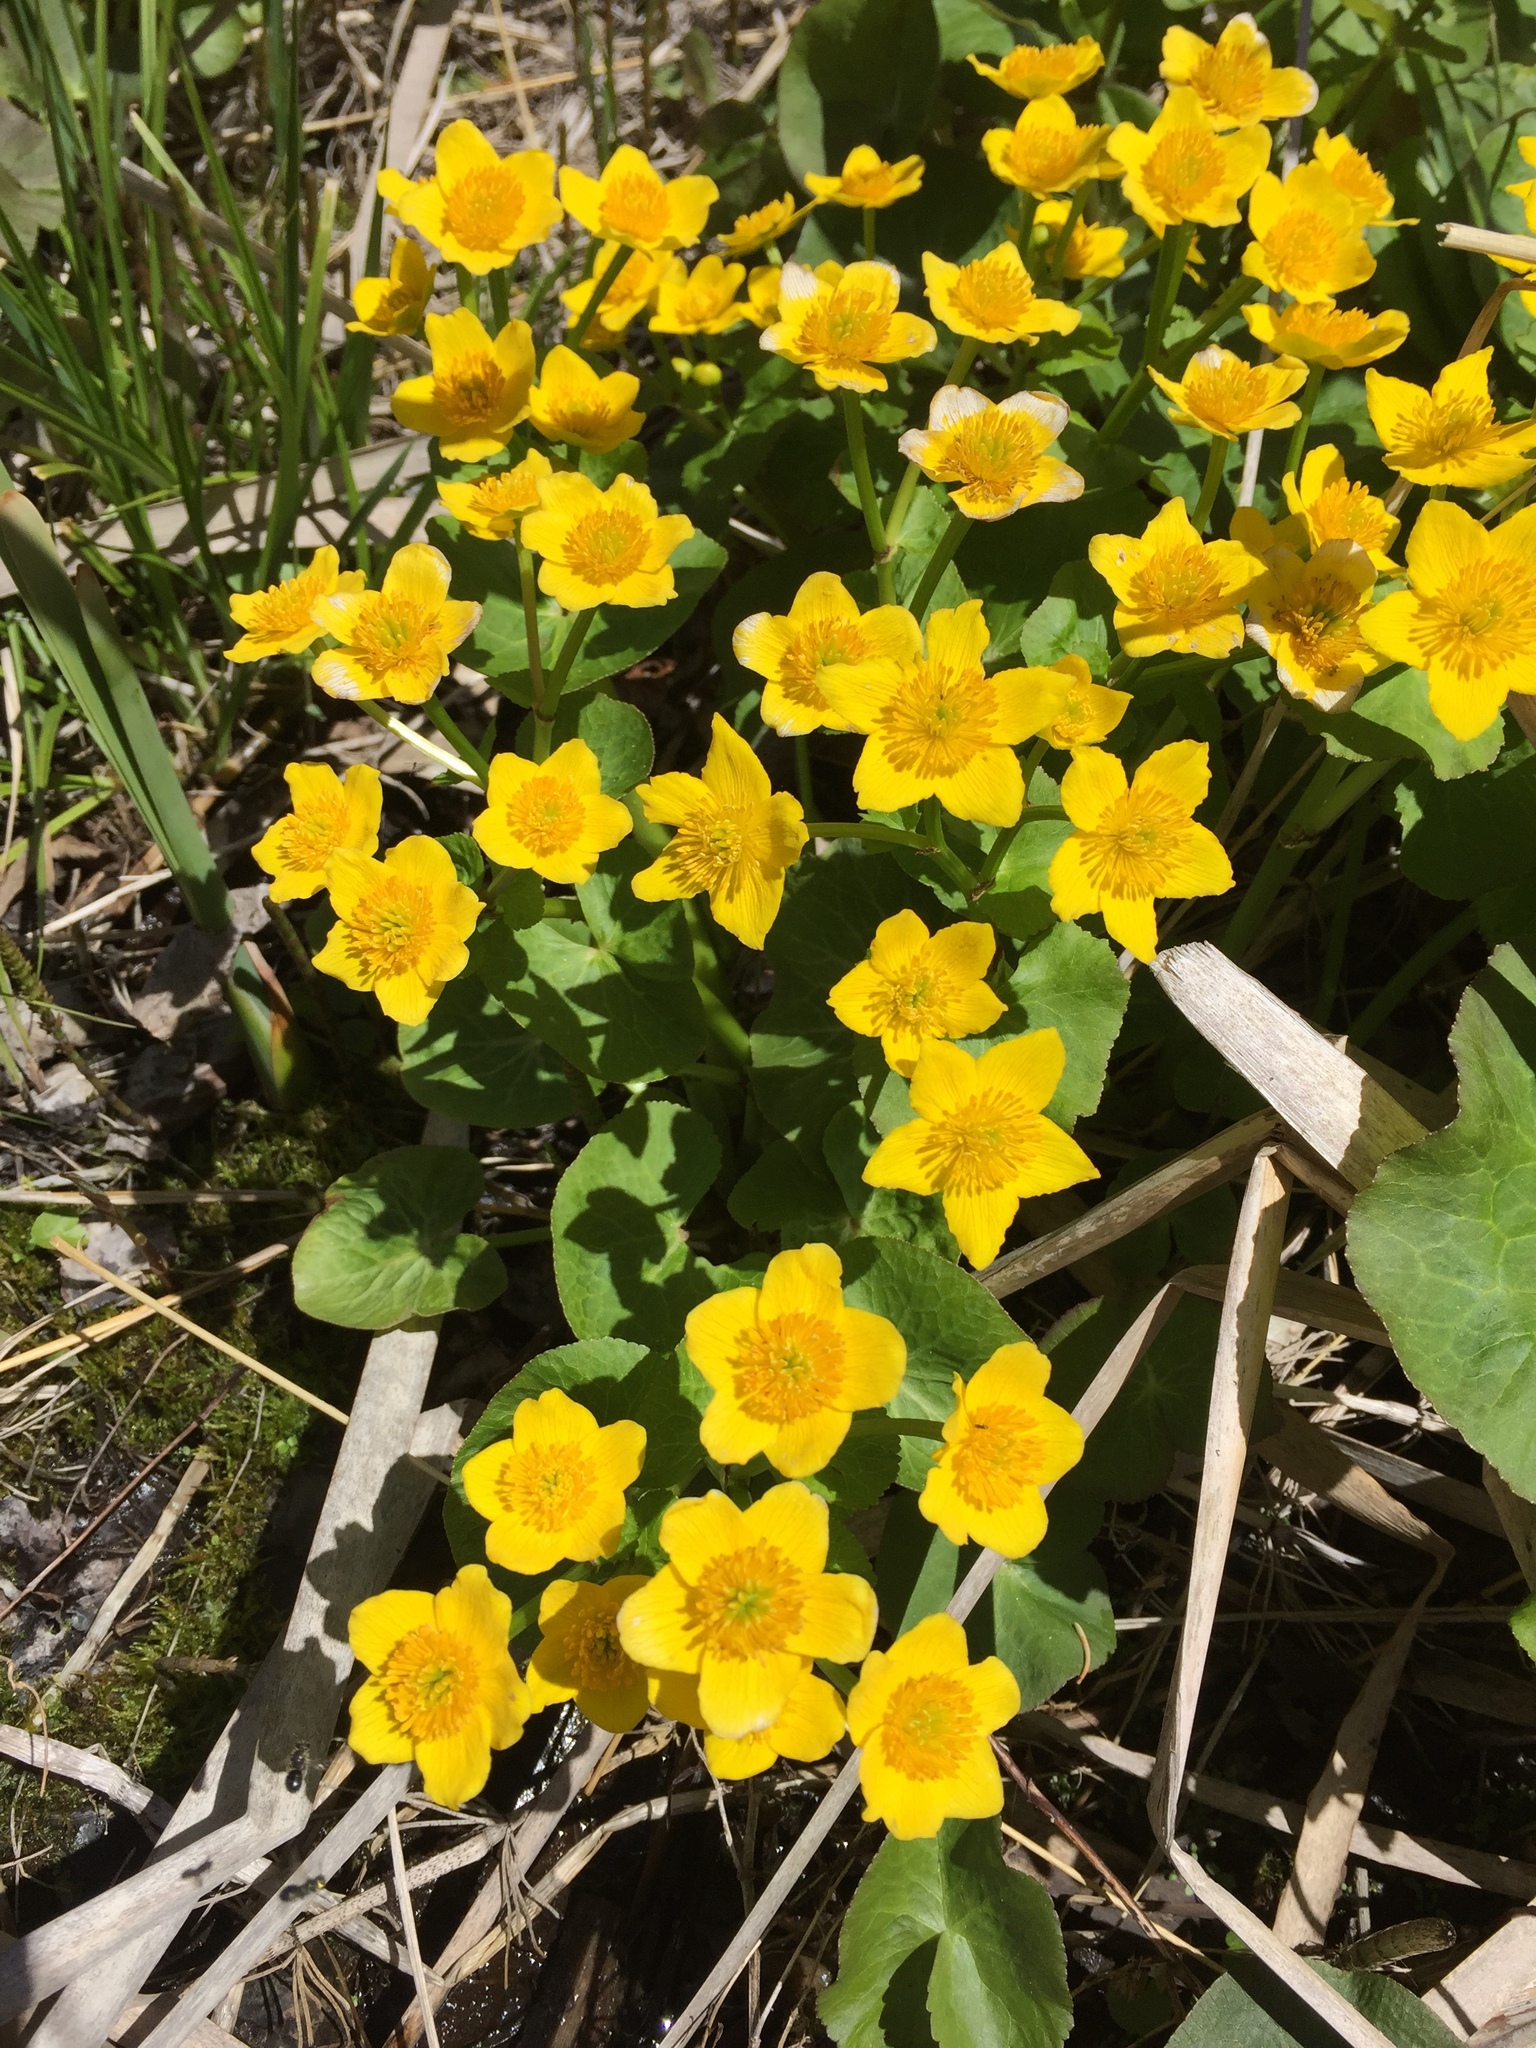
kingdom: Plantae
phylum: Tracheophyta
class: Magnoliopsida
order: Ranunculales
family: Ranunculaceae
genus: Caltha
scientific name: Caltha palustris
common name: Marsh marigold
